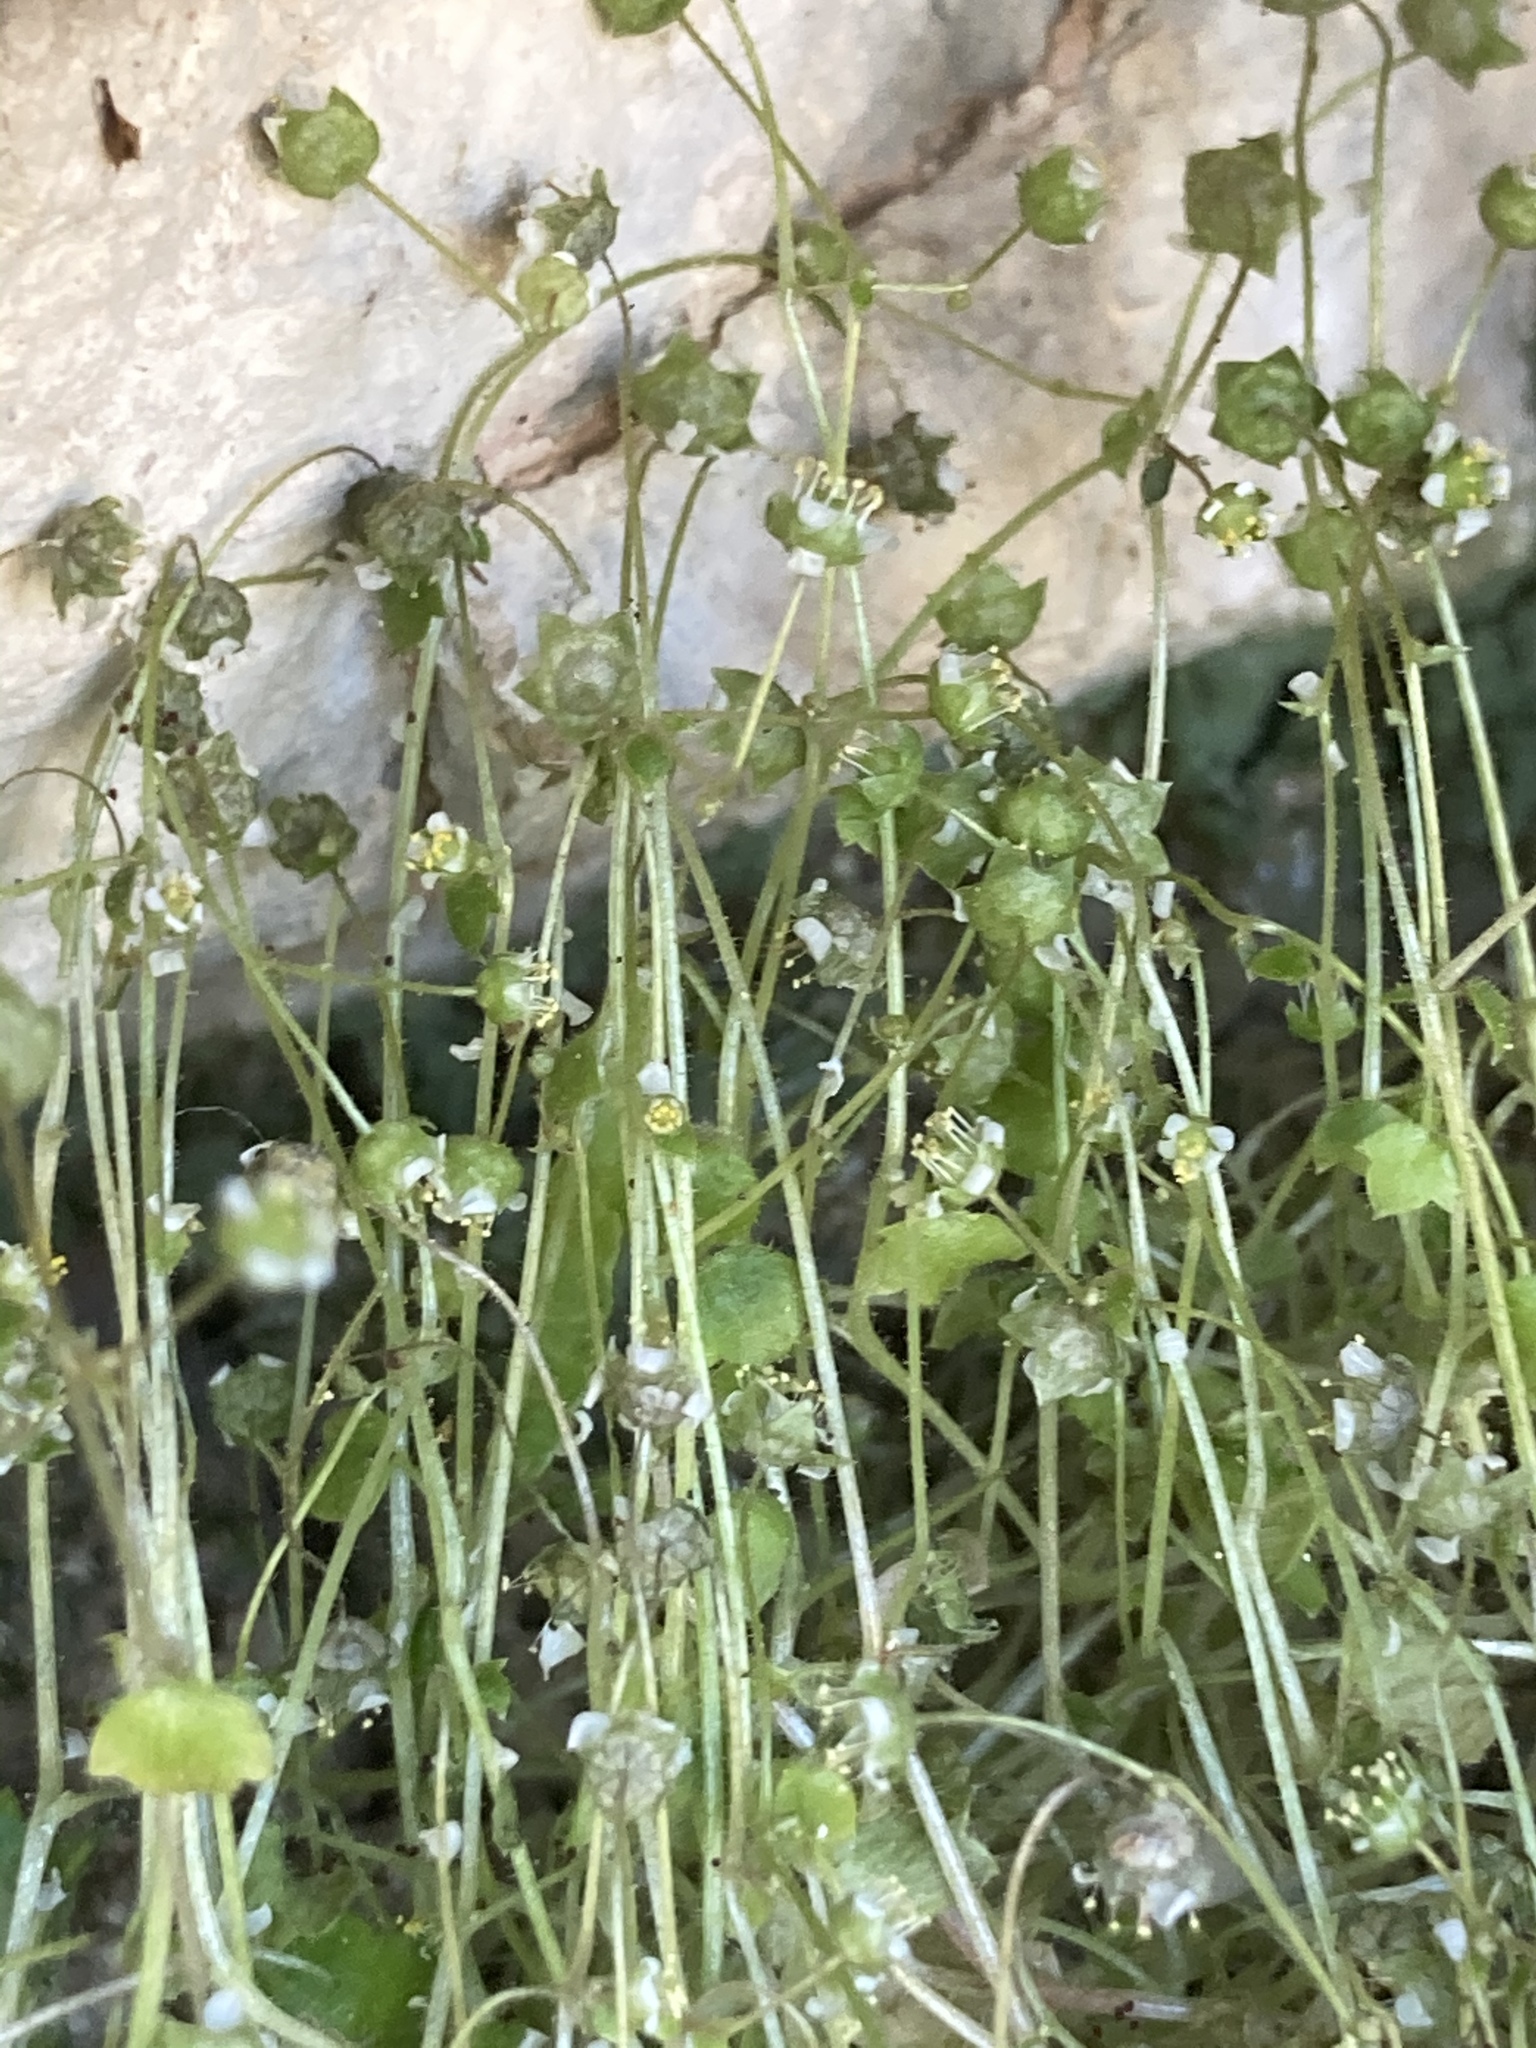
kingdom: Plantae
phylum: Tracheophyta
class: Magnoliopsida
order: Saxifragales
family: Saxifragaceae
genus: Saxifraga
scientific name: Saxifraga hederacea
